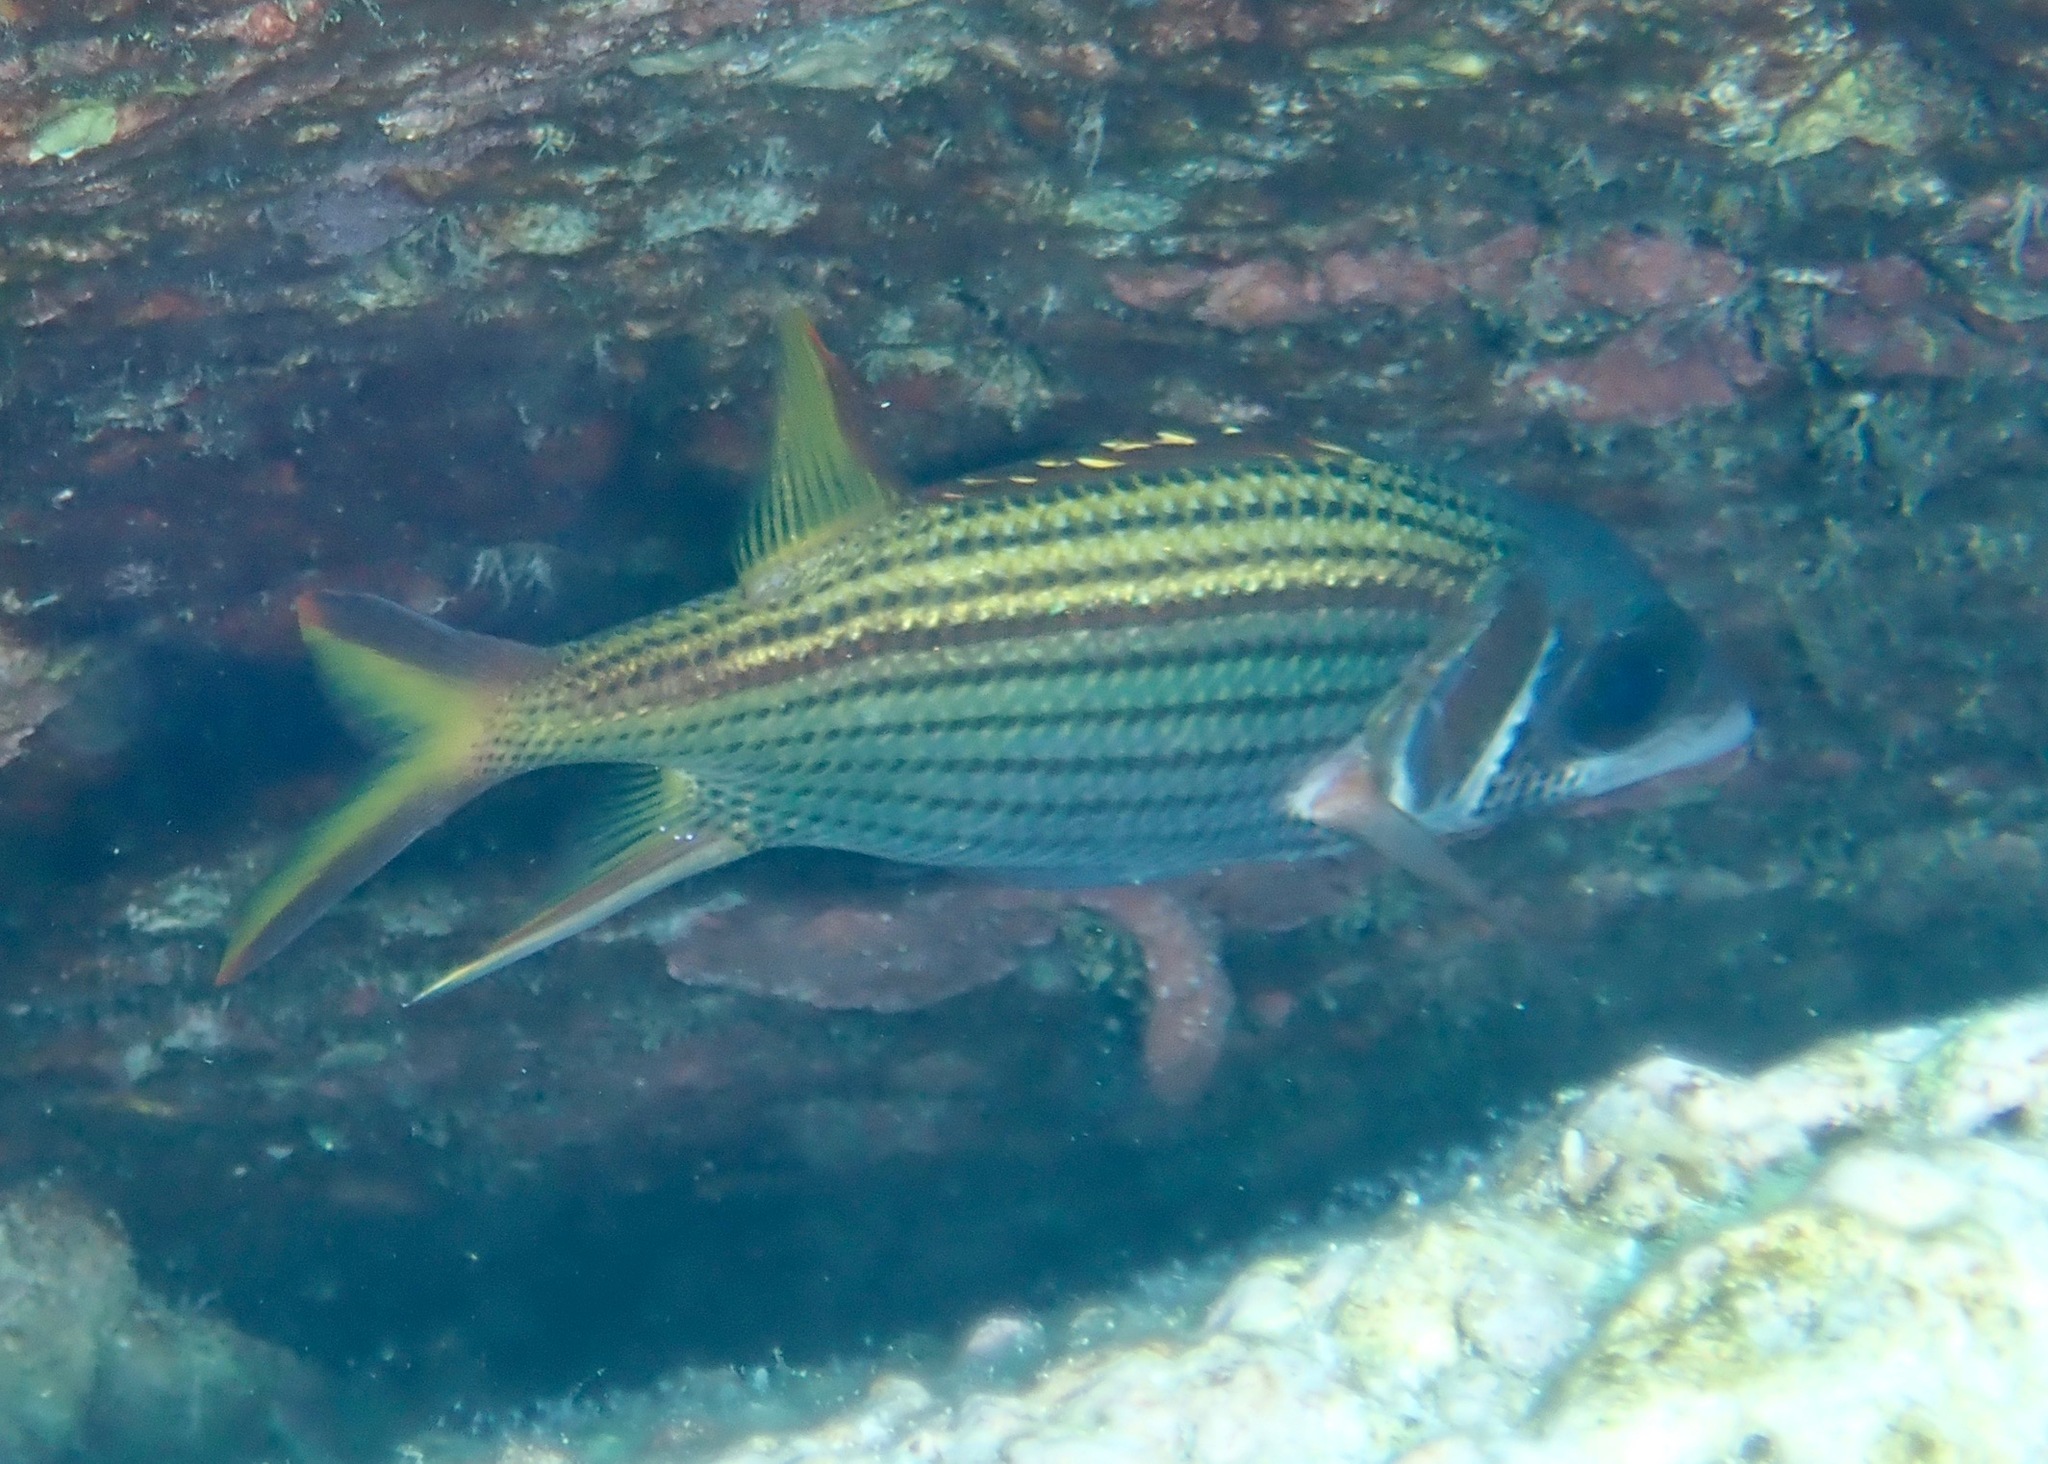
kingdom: Animalia
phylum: Chordata
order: Beryciformes
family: Holocentridae
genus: Neoniphon
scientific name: Neoniphon sammara
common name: Sammara squirrelfish
